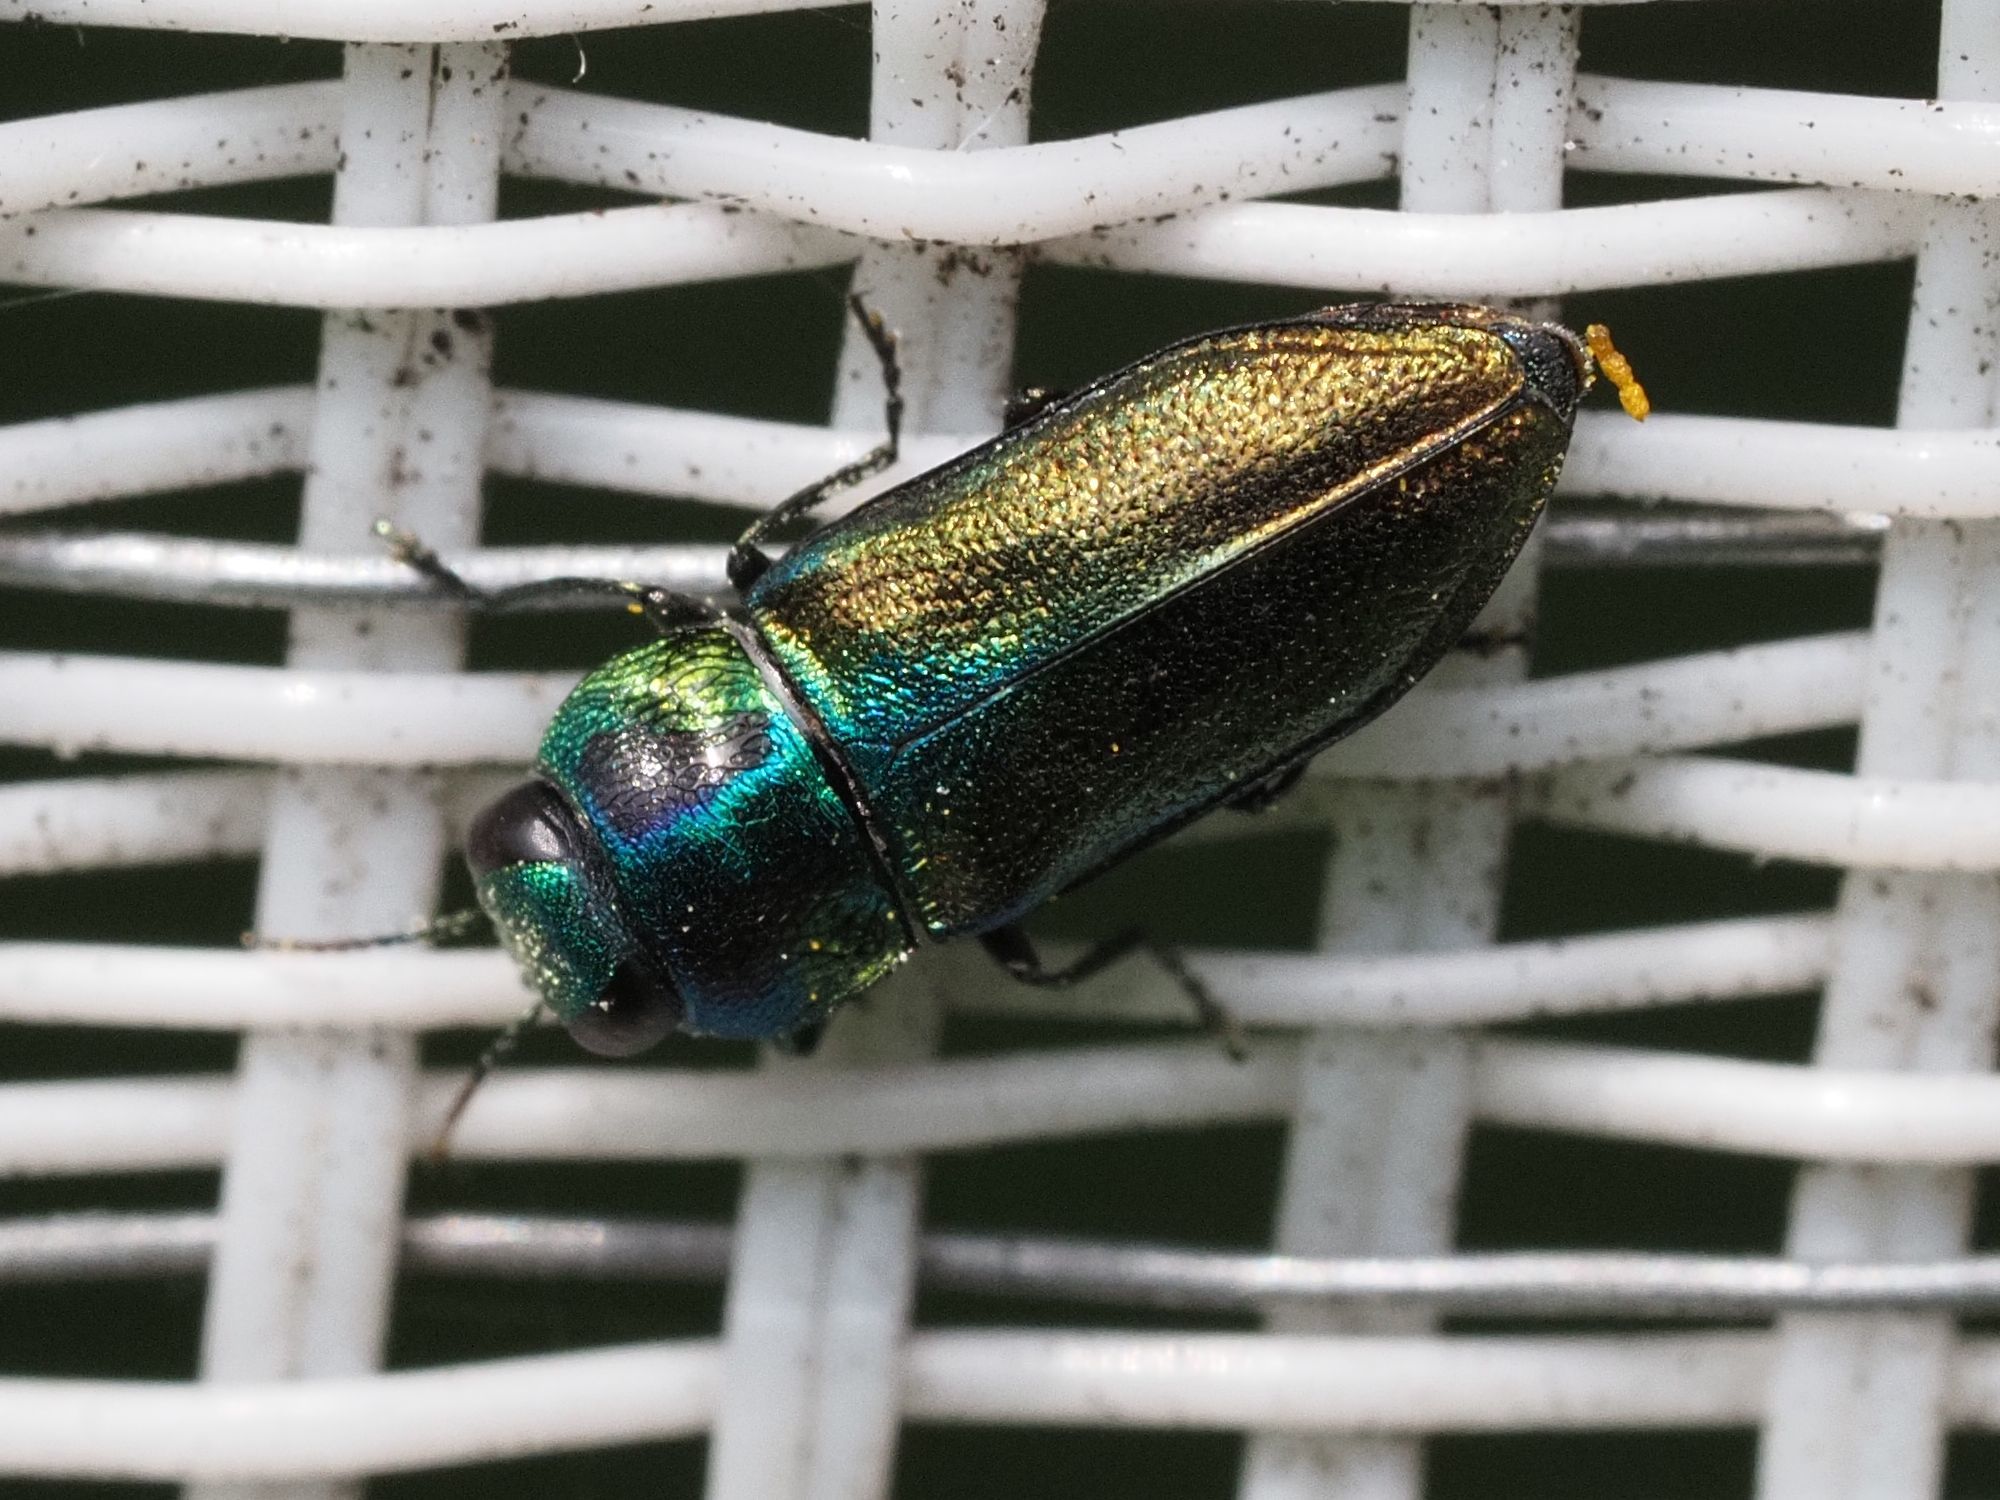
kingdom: Animalia
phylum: Arthropoda
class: Insecta
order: Coleoptera
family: Buprestidae
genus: Anthaxia
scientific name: Anthaxia podolica
